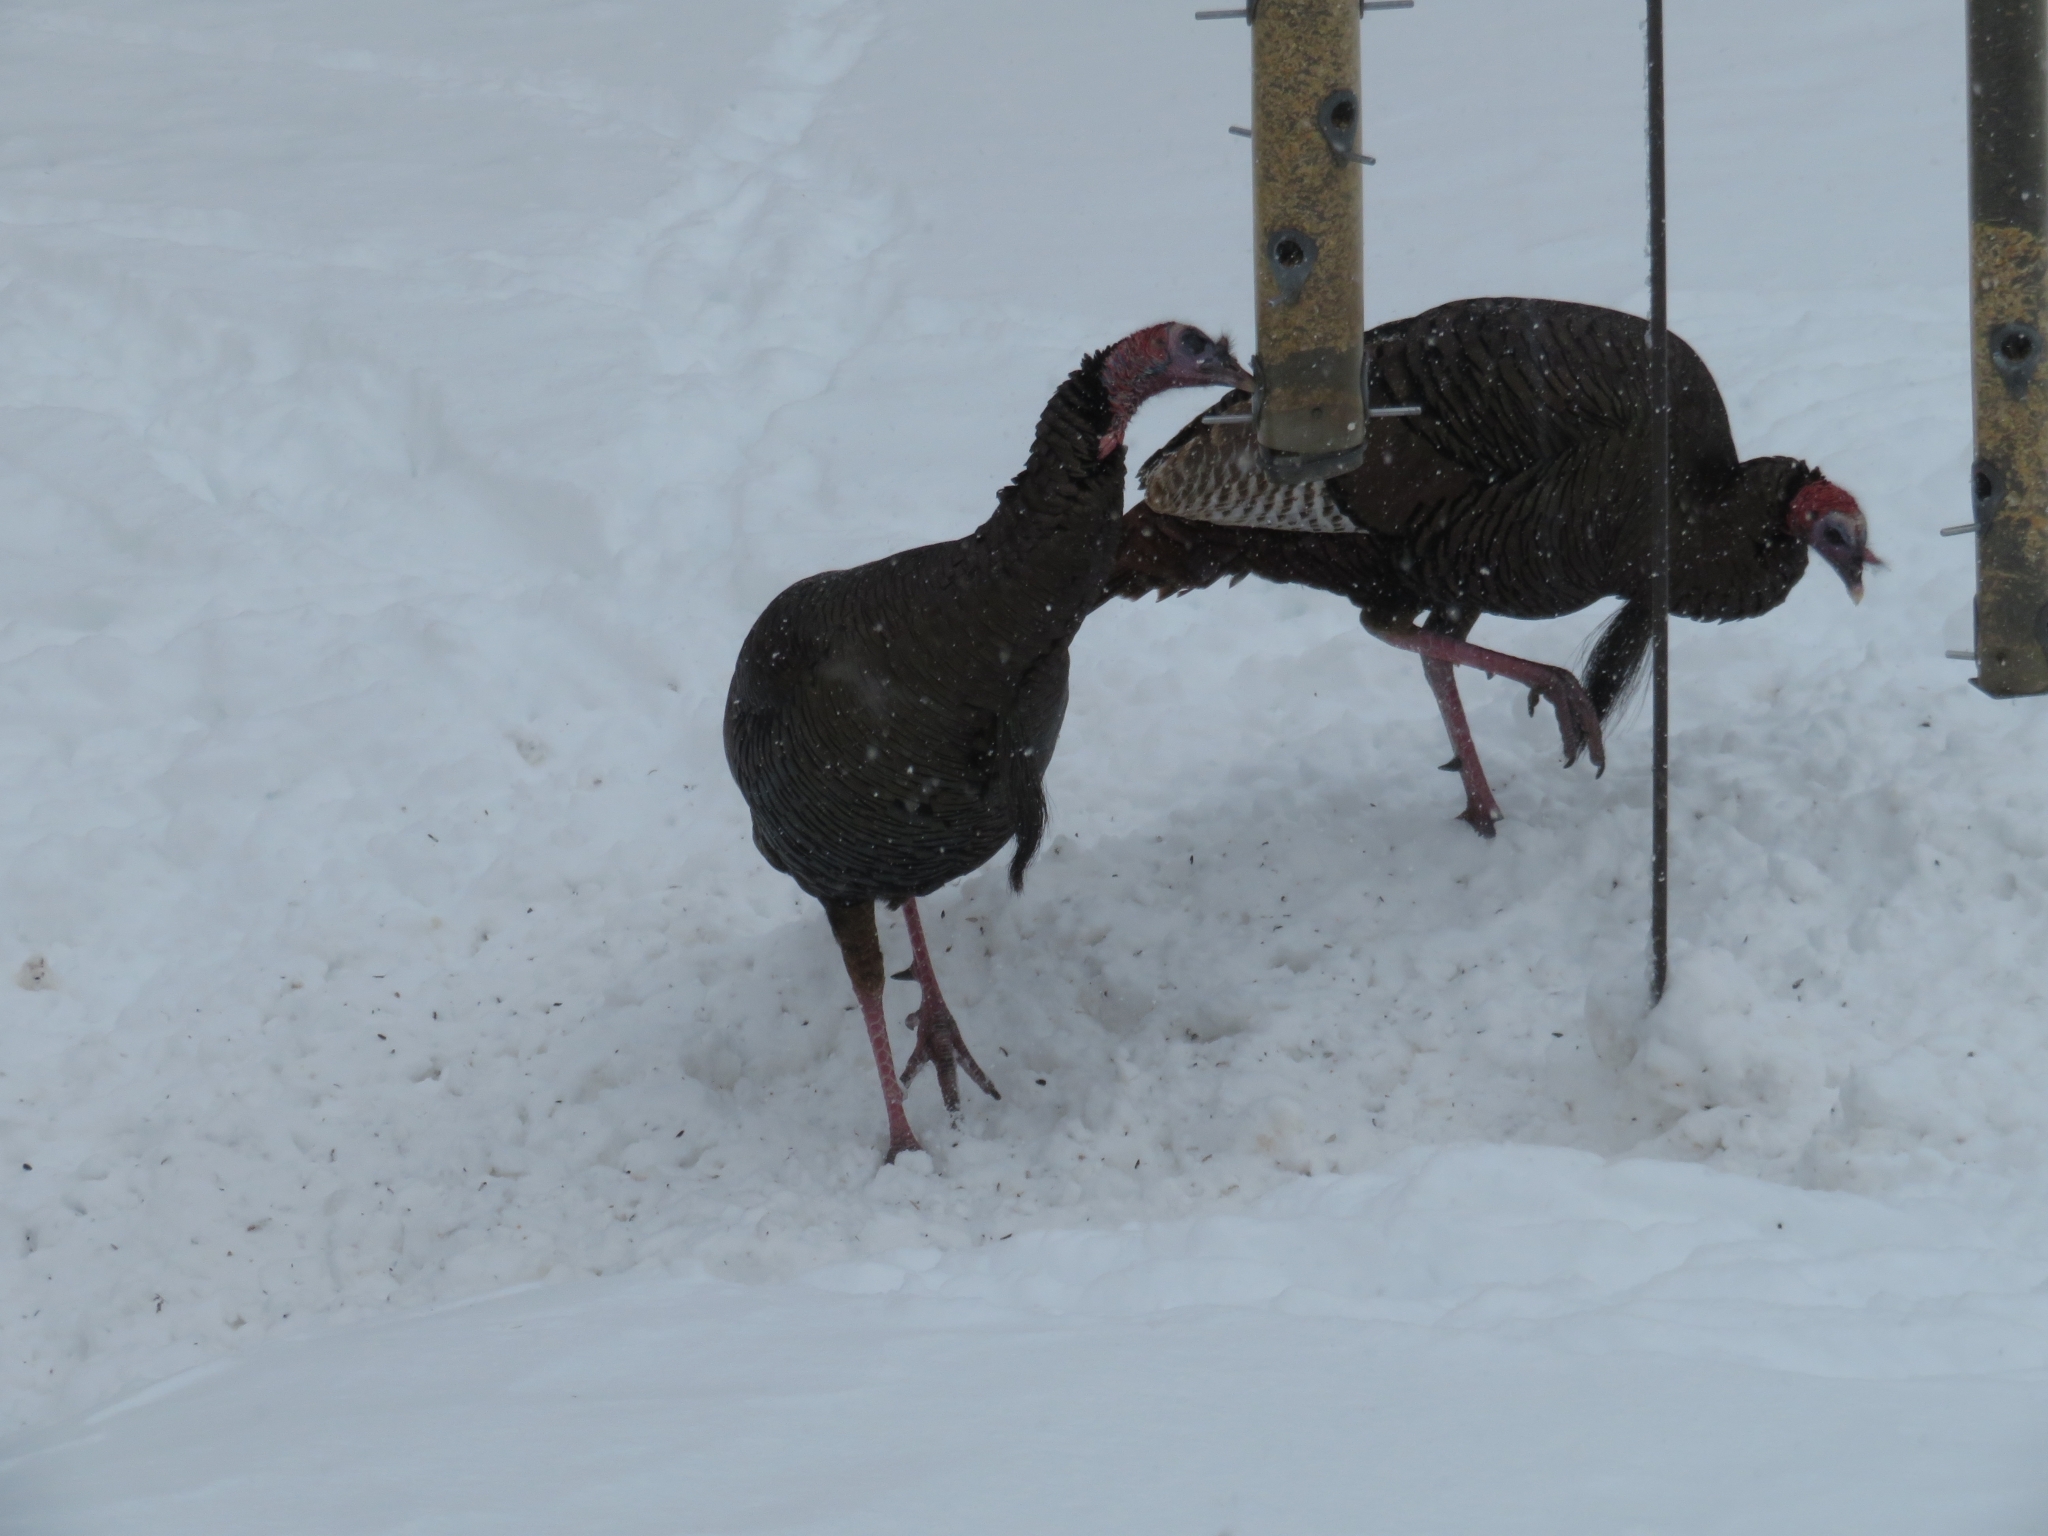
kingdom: Animalia
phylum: Chordata
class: Aves
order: Galliformes
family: Phasianidae
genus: Meleagris
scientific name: Meleagris gallopavo
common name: Wild turkey
